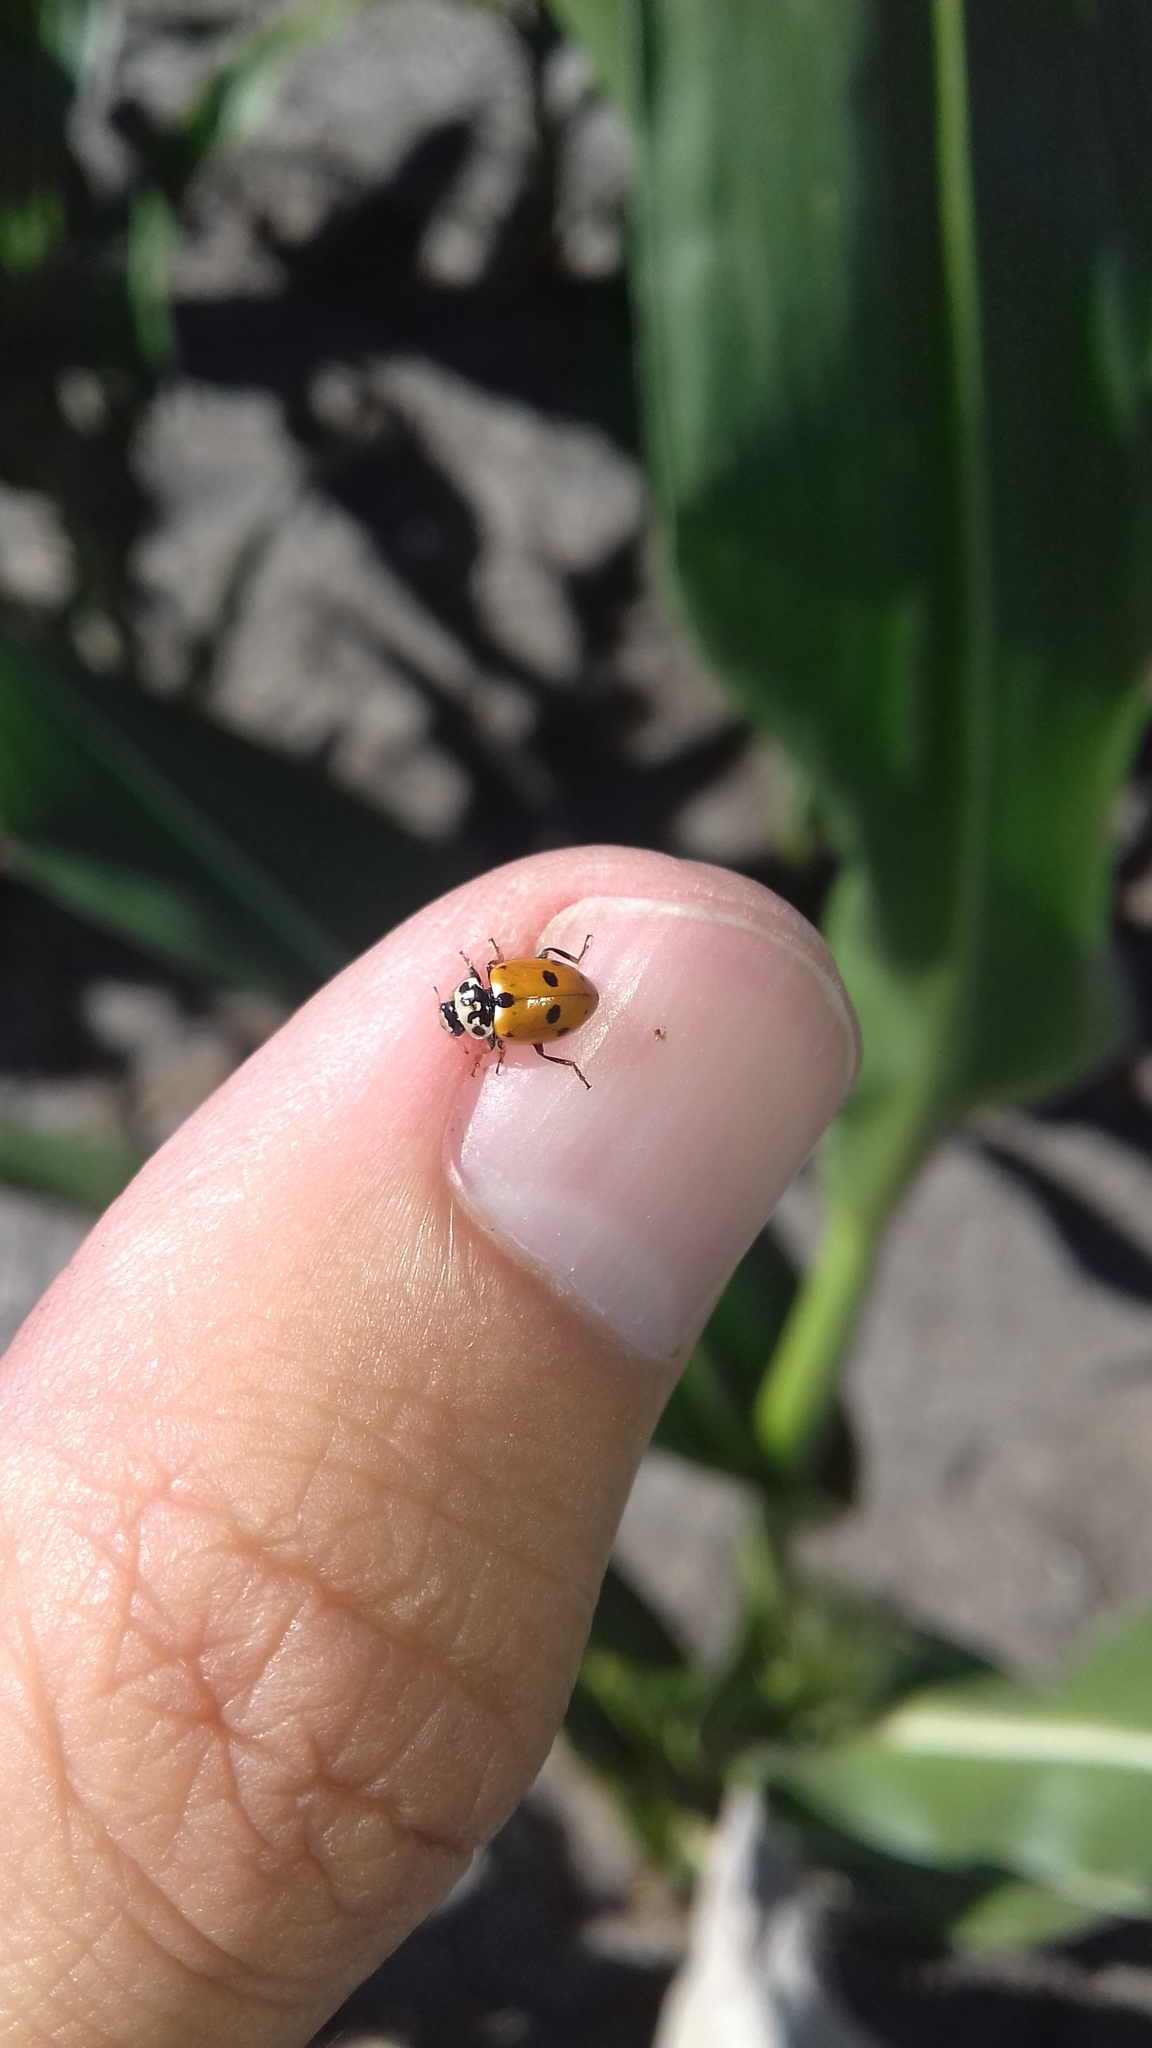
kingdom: Animalia
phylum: Arthropoda
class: Insecta
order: Coleoptera
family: Coccinellidae
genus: Hippodamia
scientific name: Hippodamia variegata
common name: Ladybird beetle
